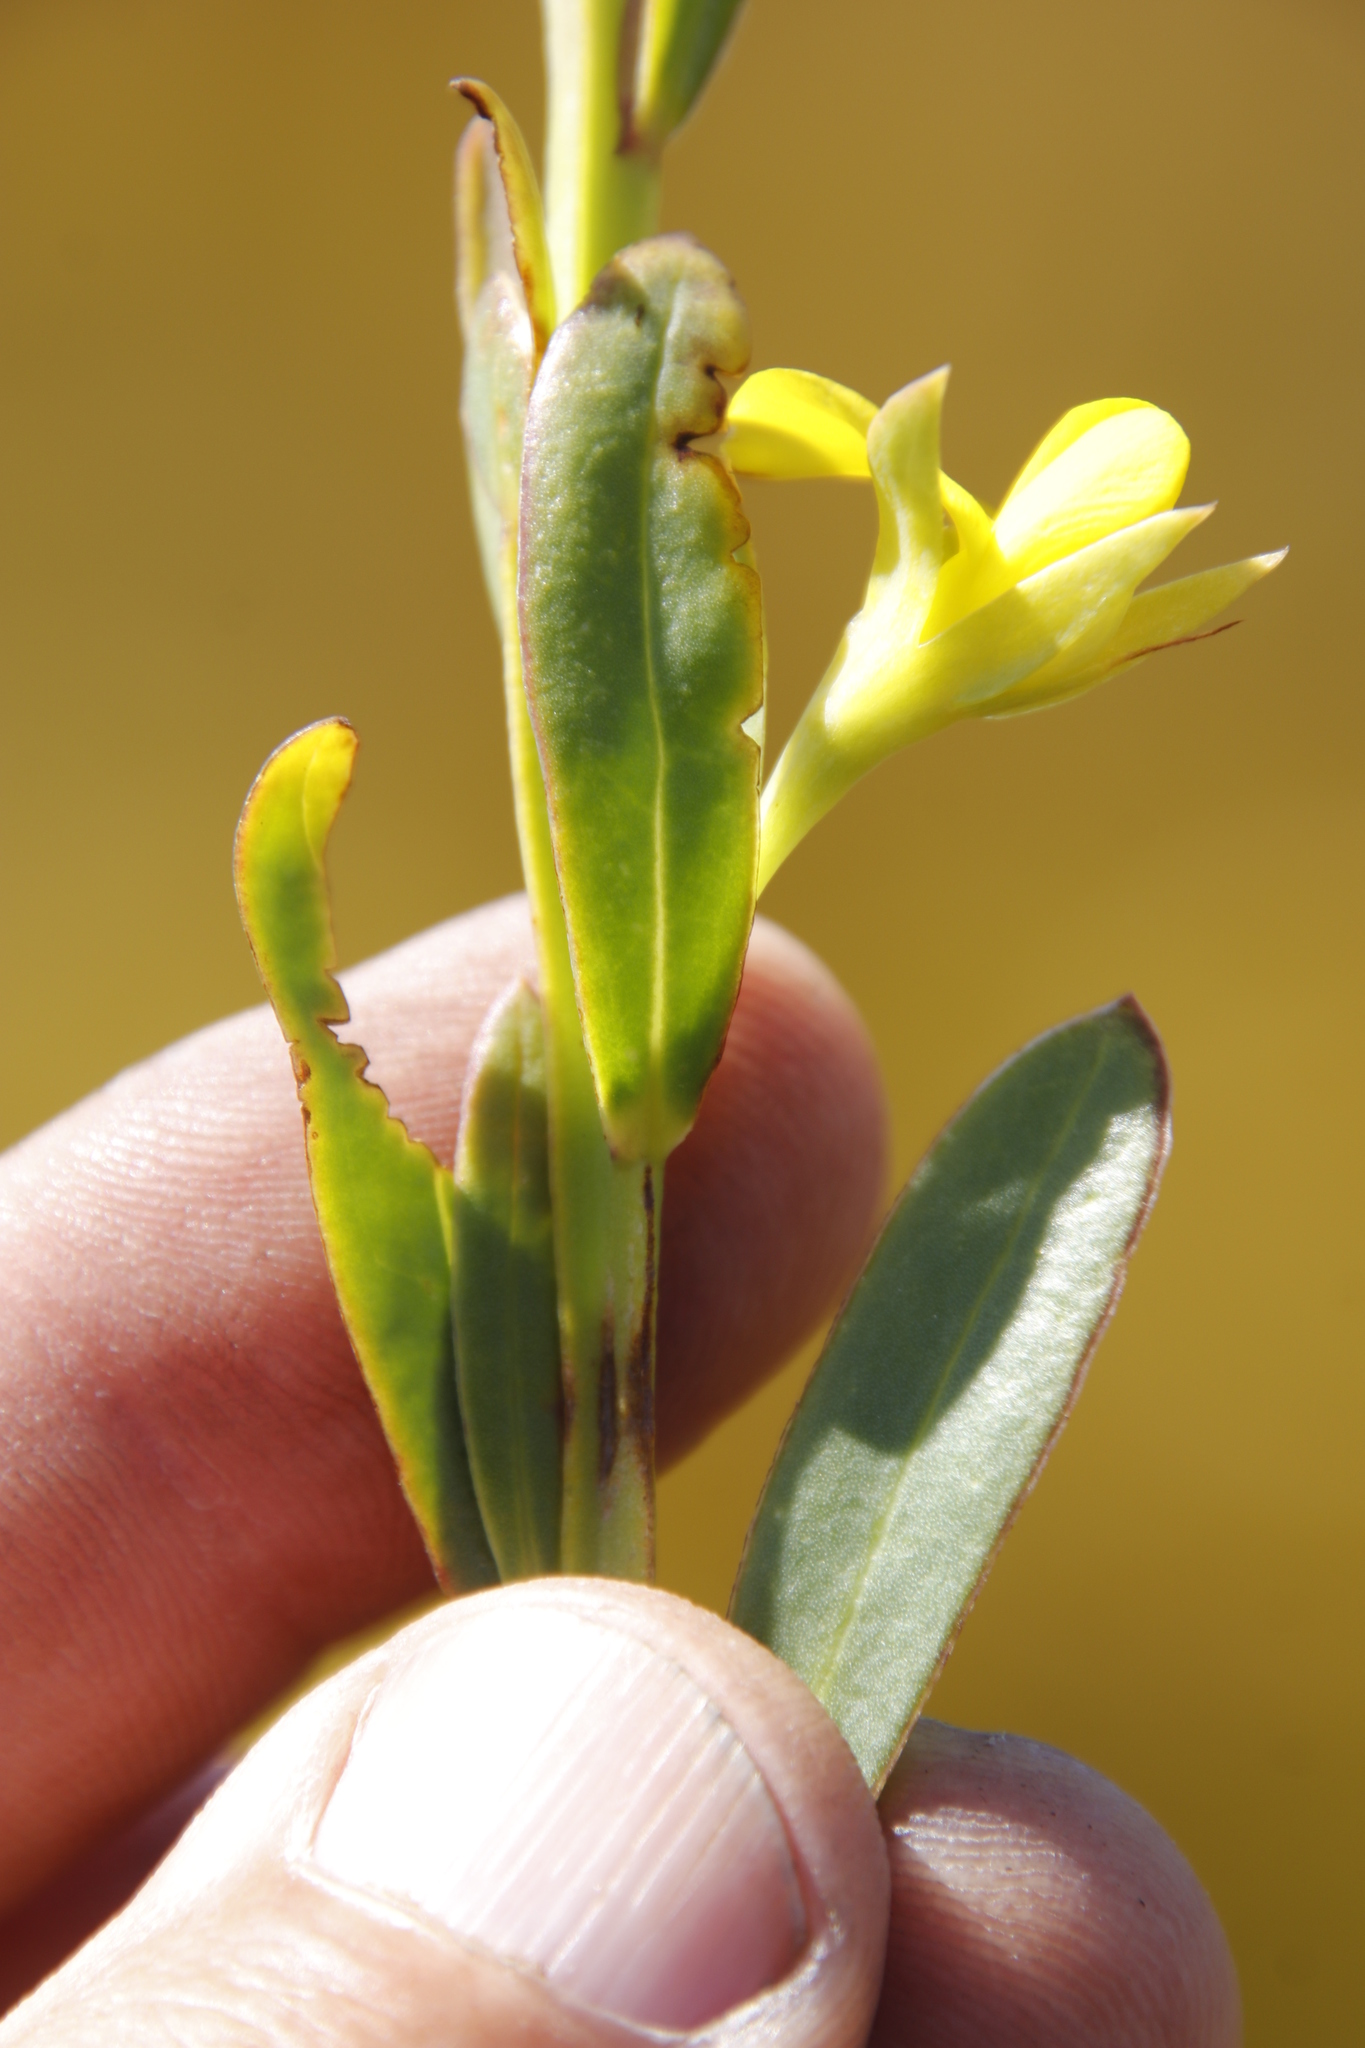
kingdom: Plantae
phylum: Tracheophyta
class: Magnoliopsida
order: Fabales
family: Fabaceae
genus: Rafnia
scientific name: Rafnia crassifolia
